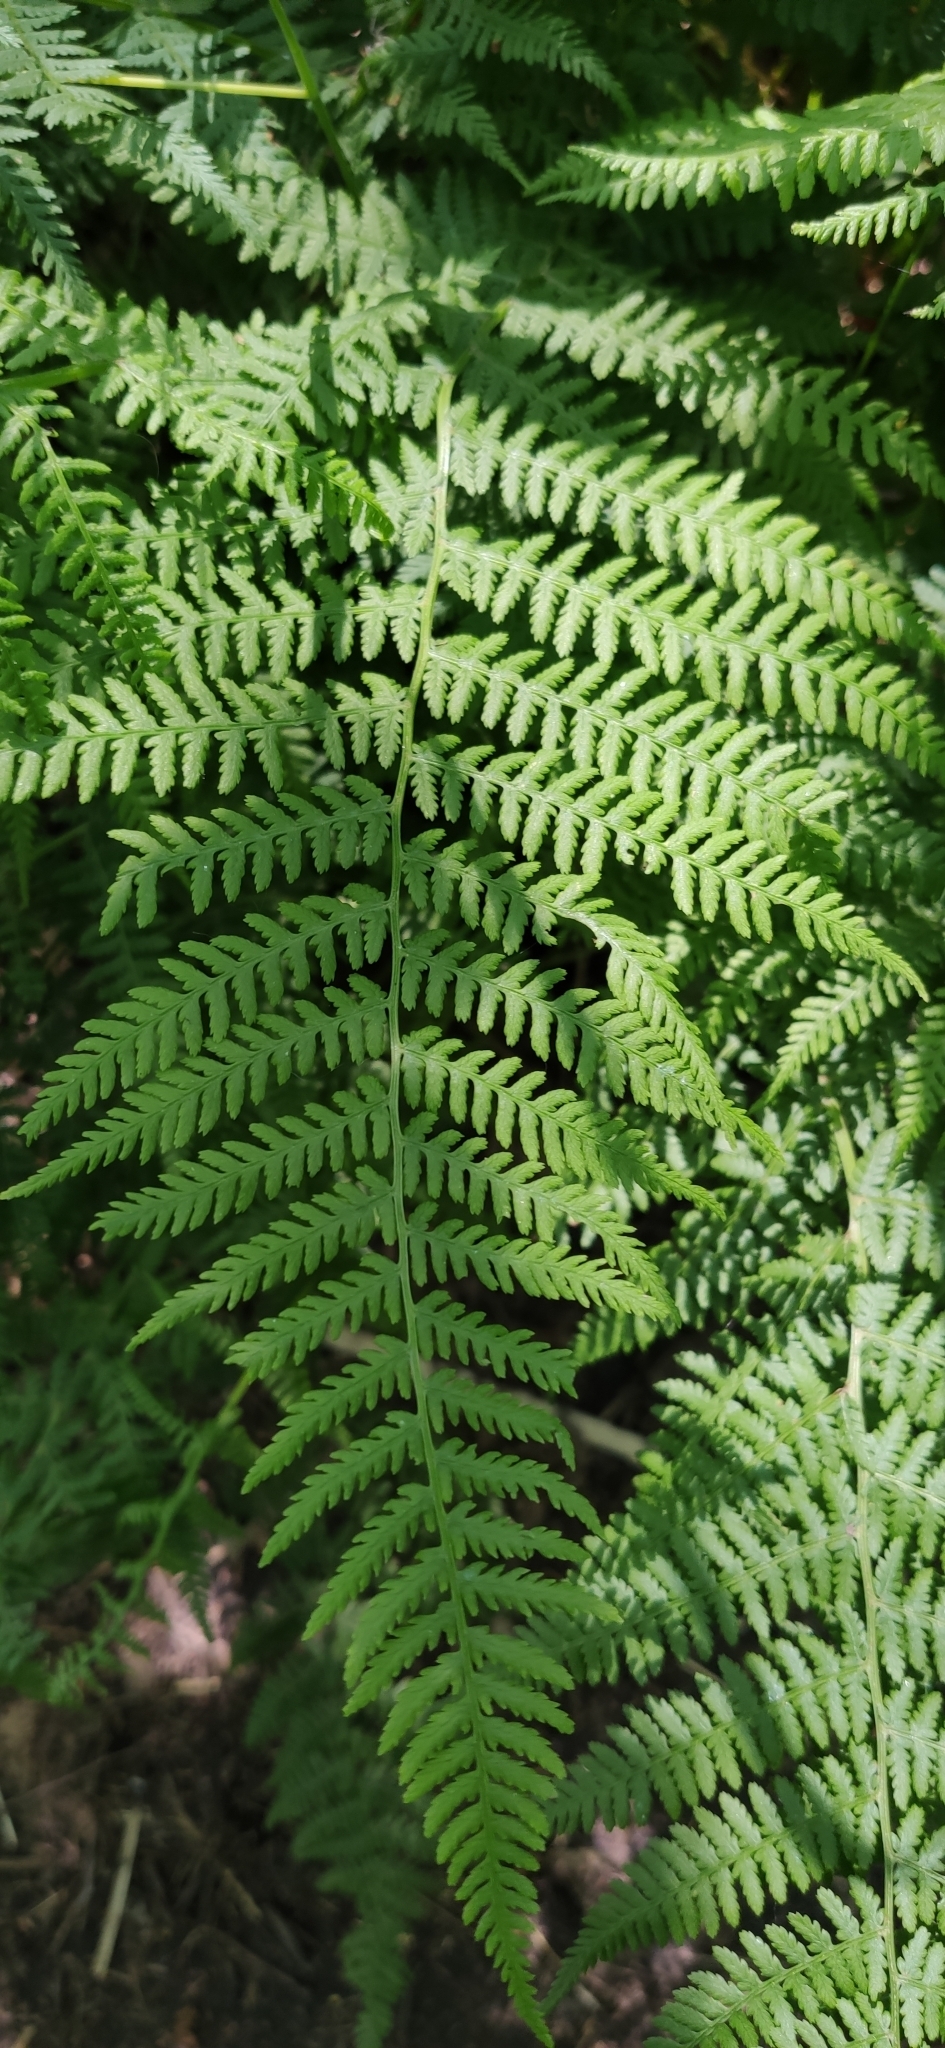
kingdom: Plantae
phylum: Tracheophyta
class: Polypodiopsida
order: Polypodiales
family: Athyriaceae
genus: Athyrium
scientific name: Athyrium filix-femina
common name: Lady fern
